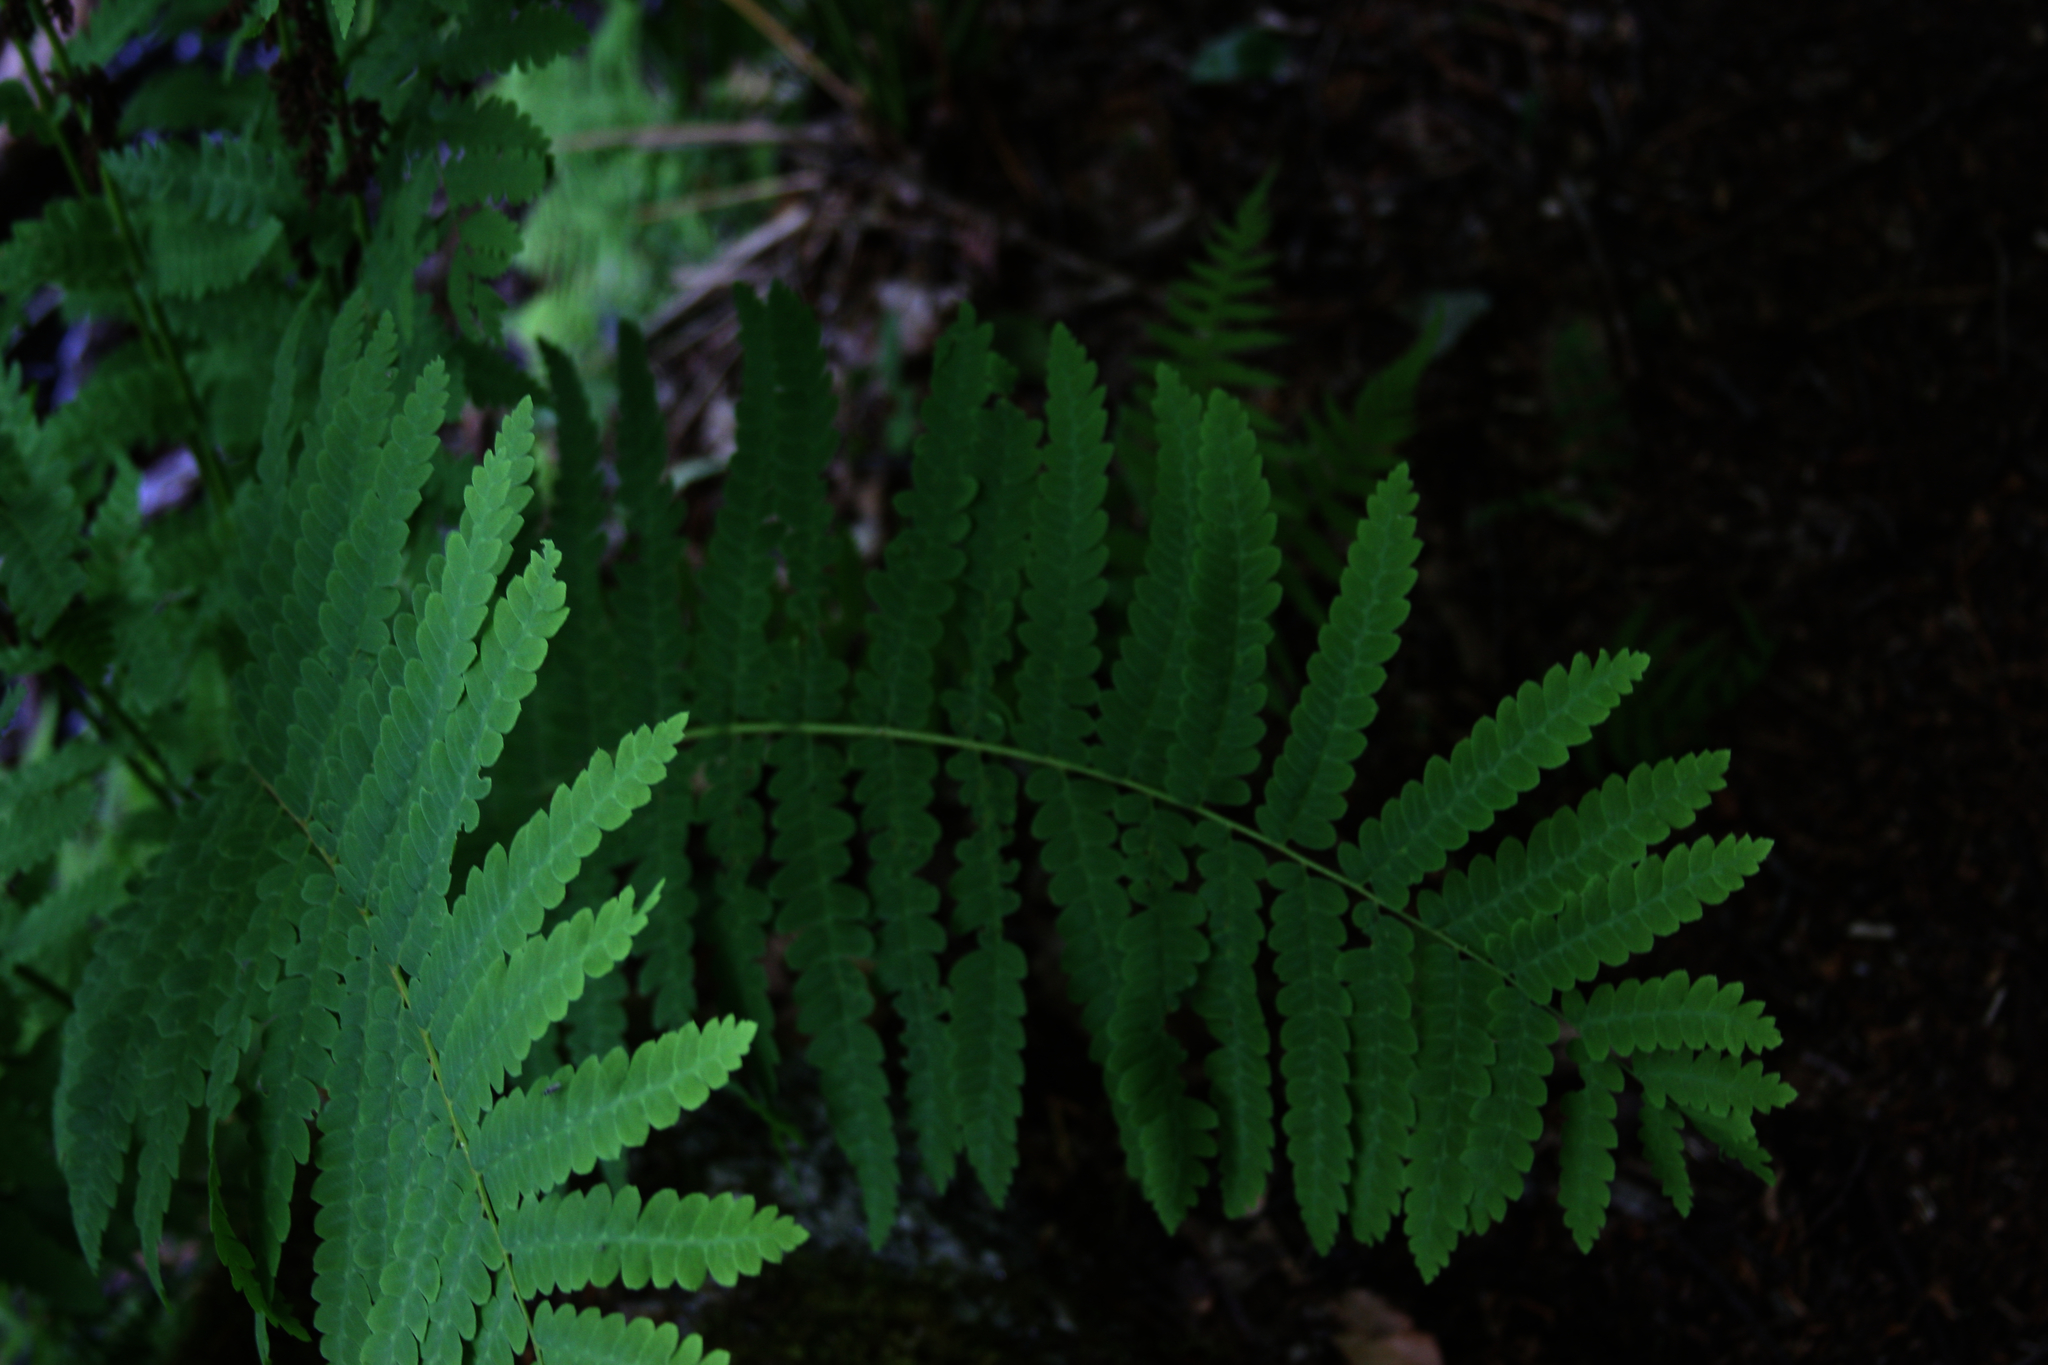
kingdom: Plantae
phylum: Tracheophyta
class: Polypodiopsida
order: Osmundales
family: Osmundaceae
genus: Claytosmunda
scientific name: Claytosmunda claytoniana
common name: Clayton's fern
